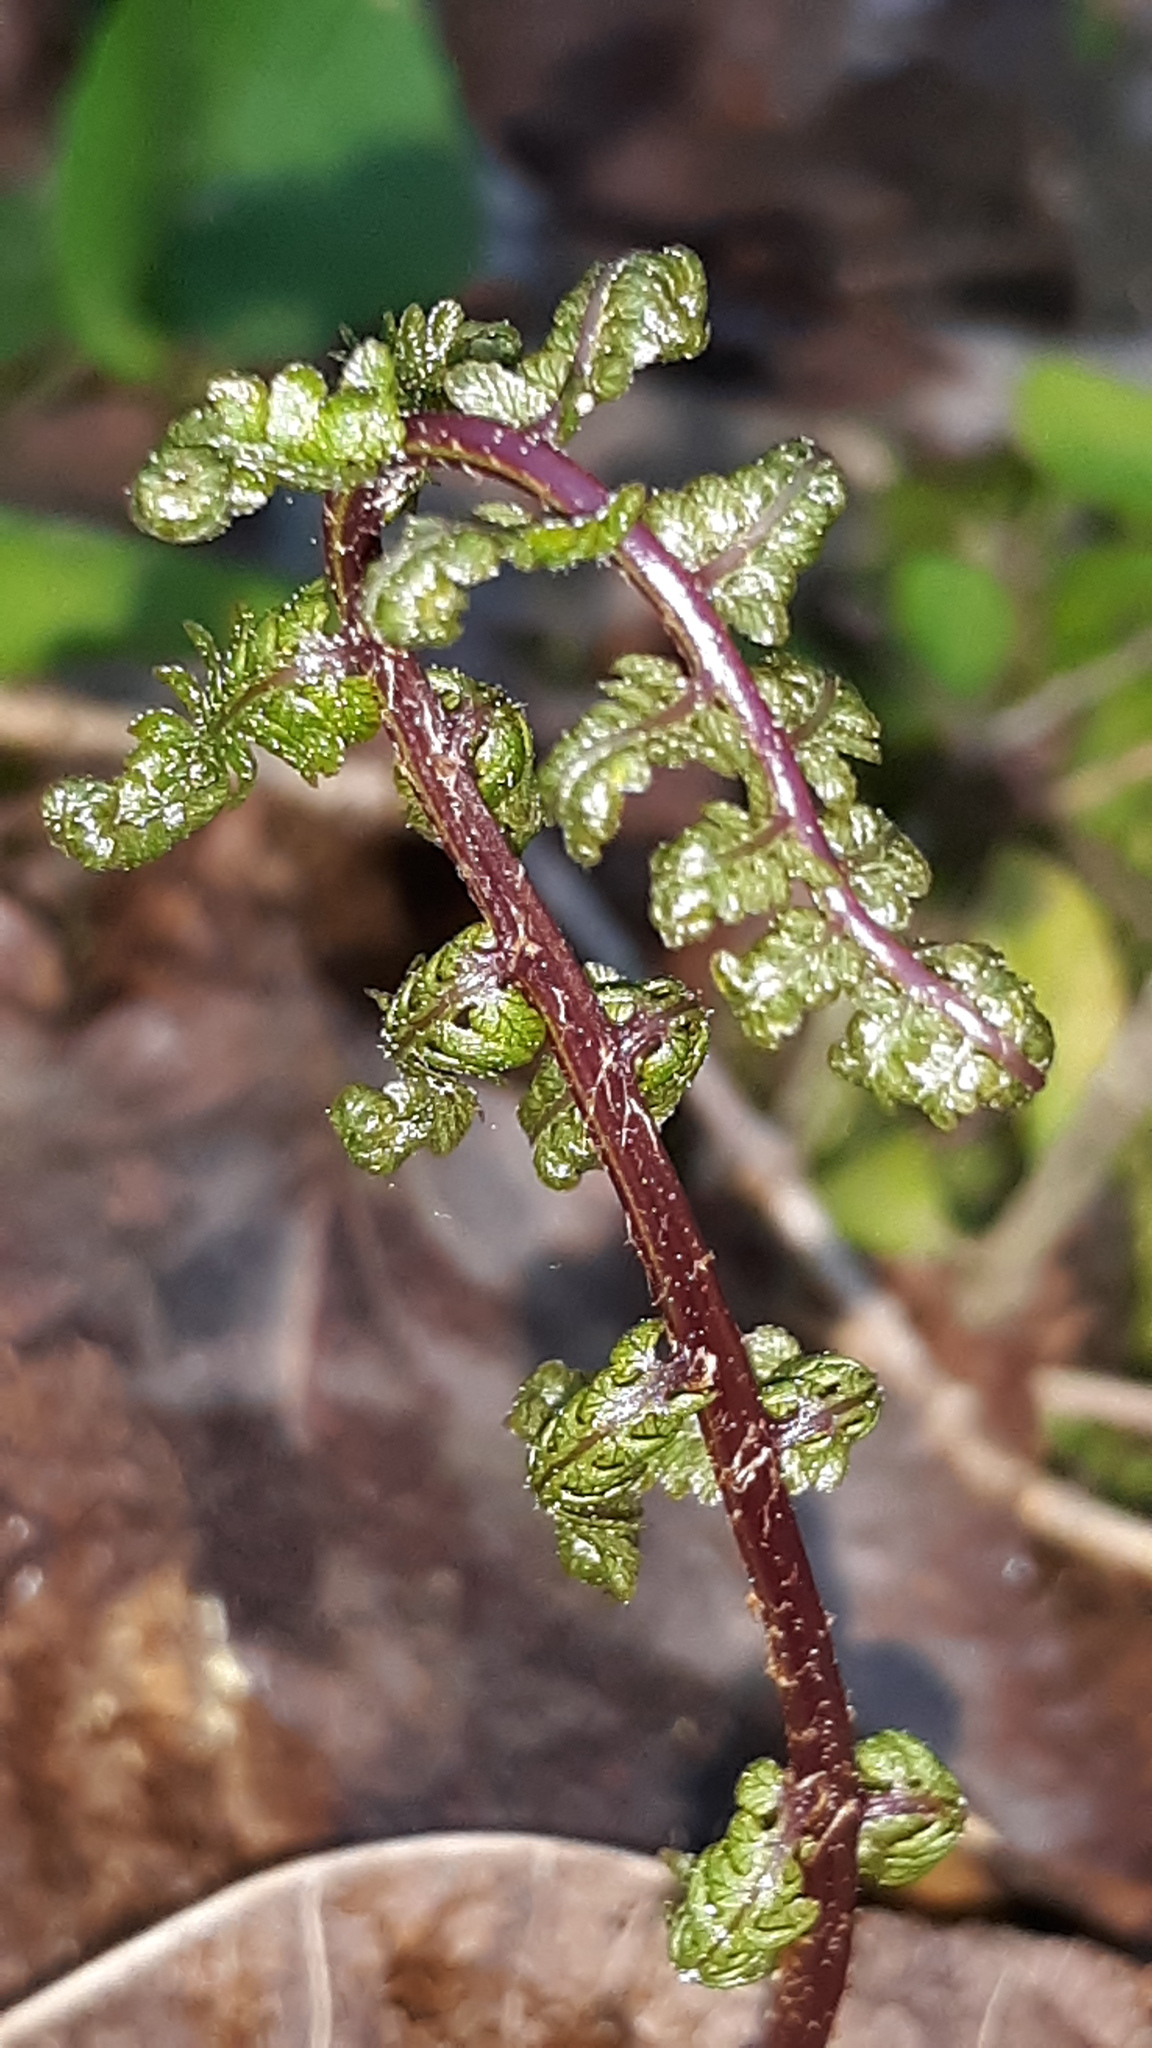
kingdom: Plantae
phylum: Tracheophyta
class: Polypodiopsida
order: Polypodiales
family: Dryopteridaceae
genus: Dryopteris
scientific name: Dryopteris erythrosora
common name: Autumn fern
